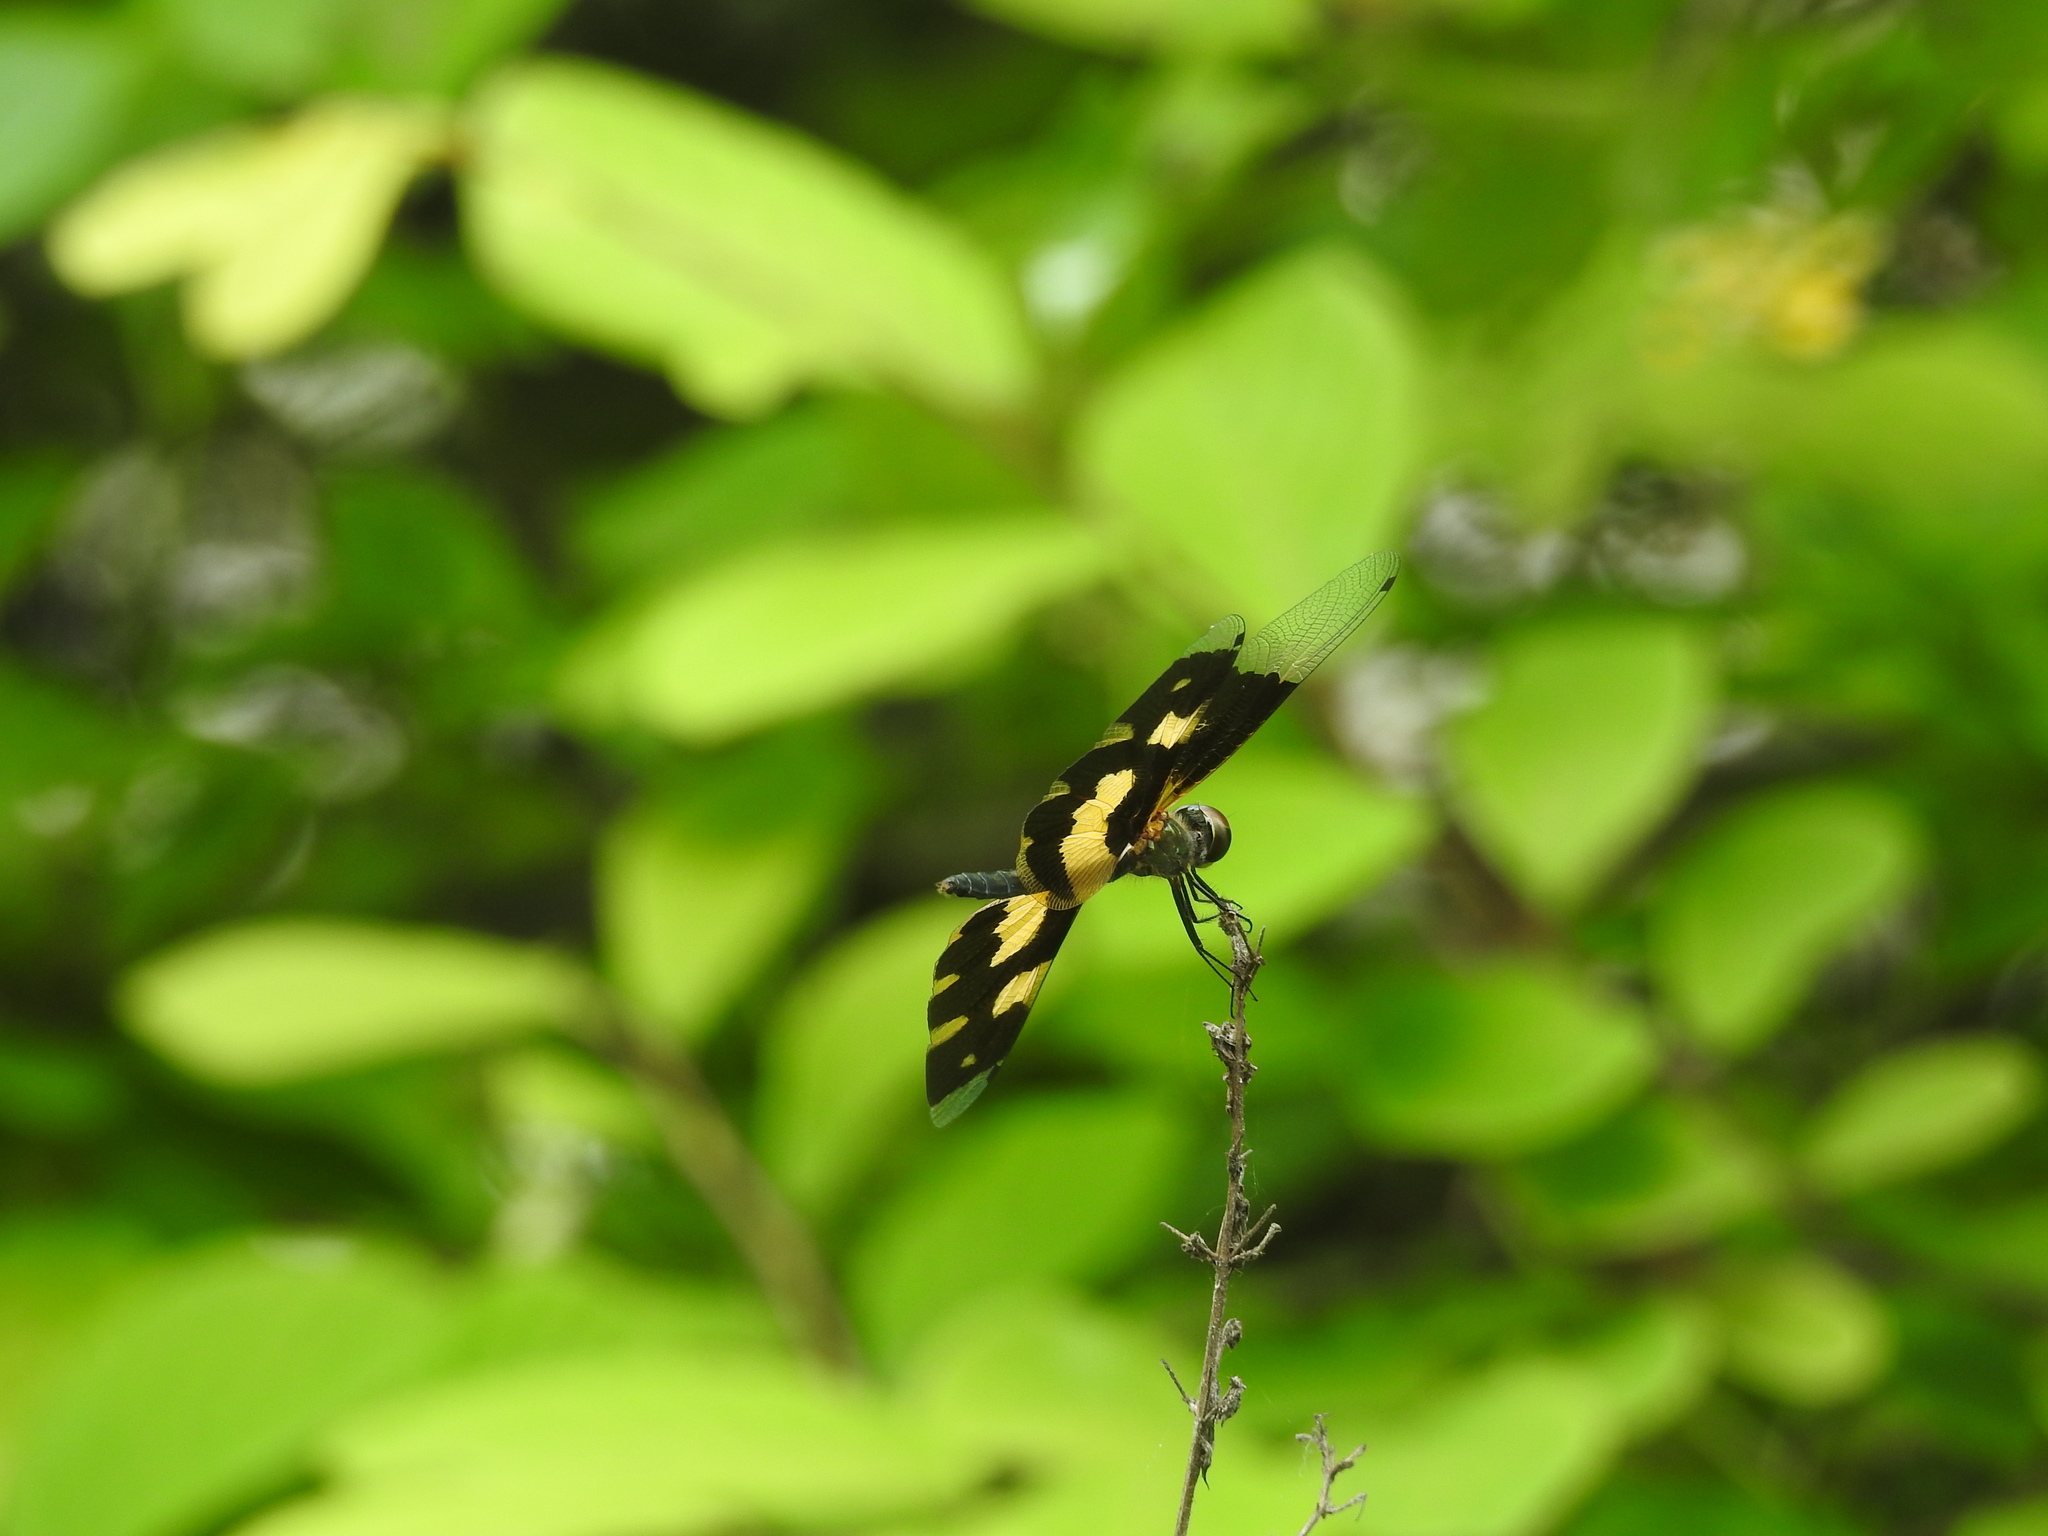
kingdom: Animalia
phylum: Arthropoda
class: Insecta
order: Odonata
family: Libellulidae
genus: Rhyothemis
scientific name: Rhyothemis variegata
